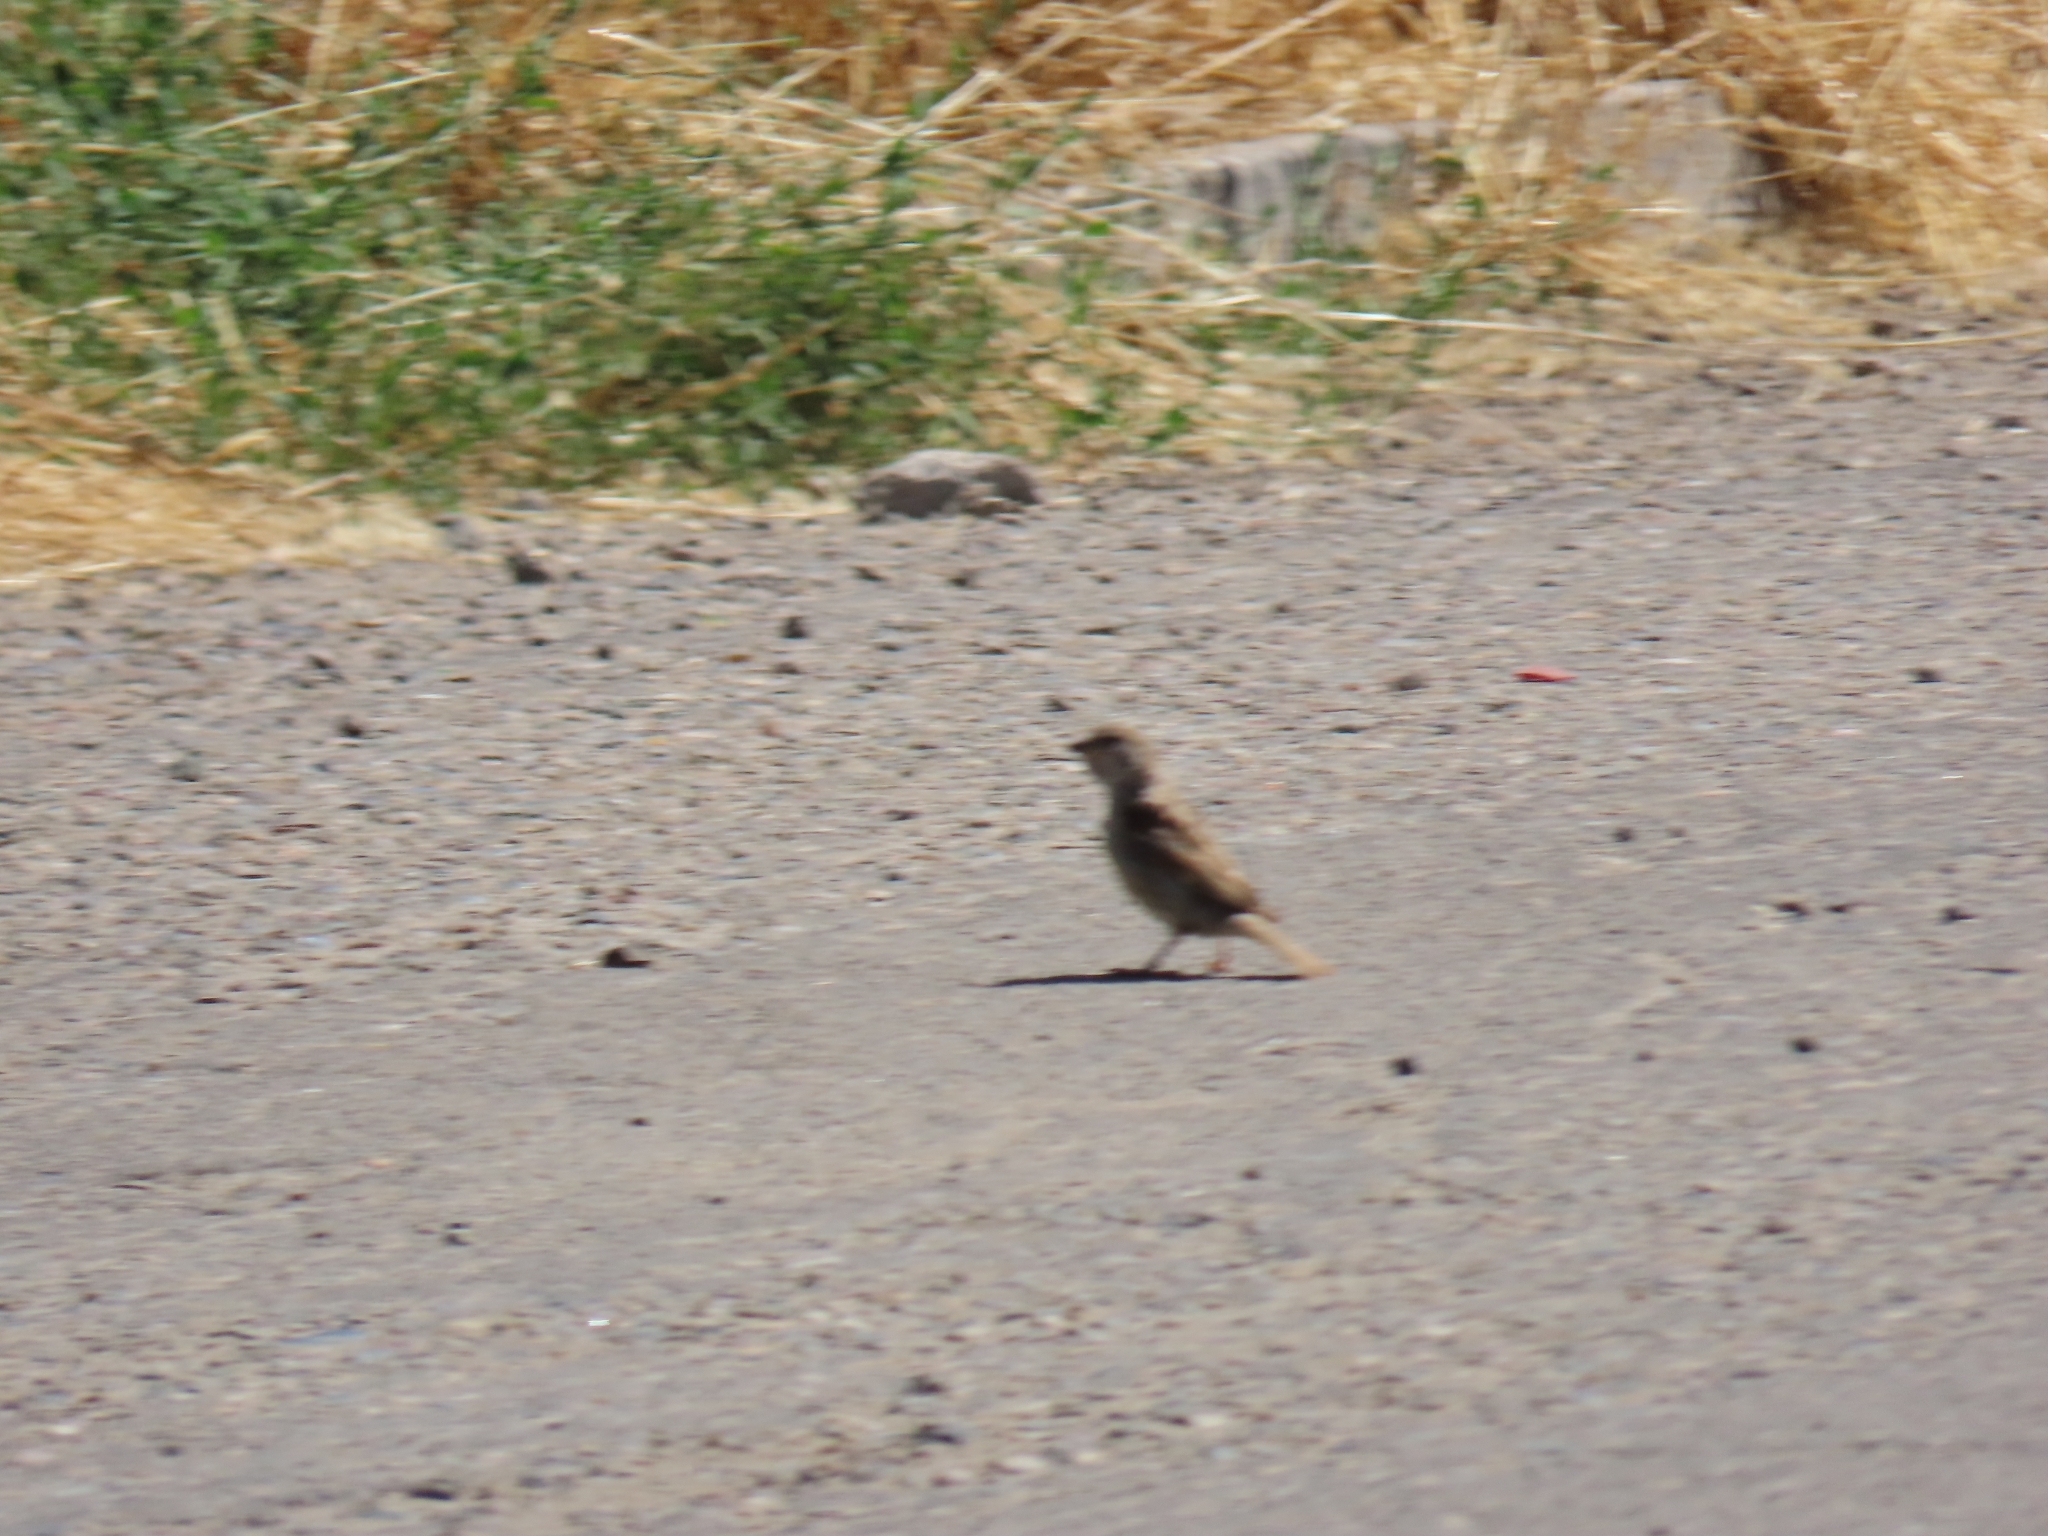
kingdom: Animalia
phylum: Chordata
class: Aves
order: Passeriformes
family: Passeridae
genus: Passer
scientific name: Passer domesticus
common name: House sparrow
